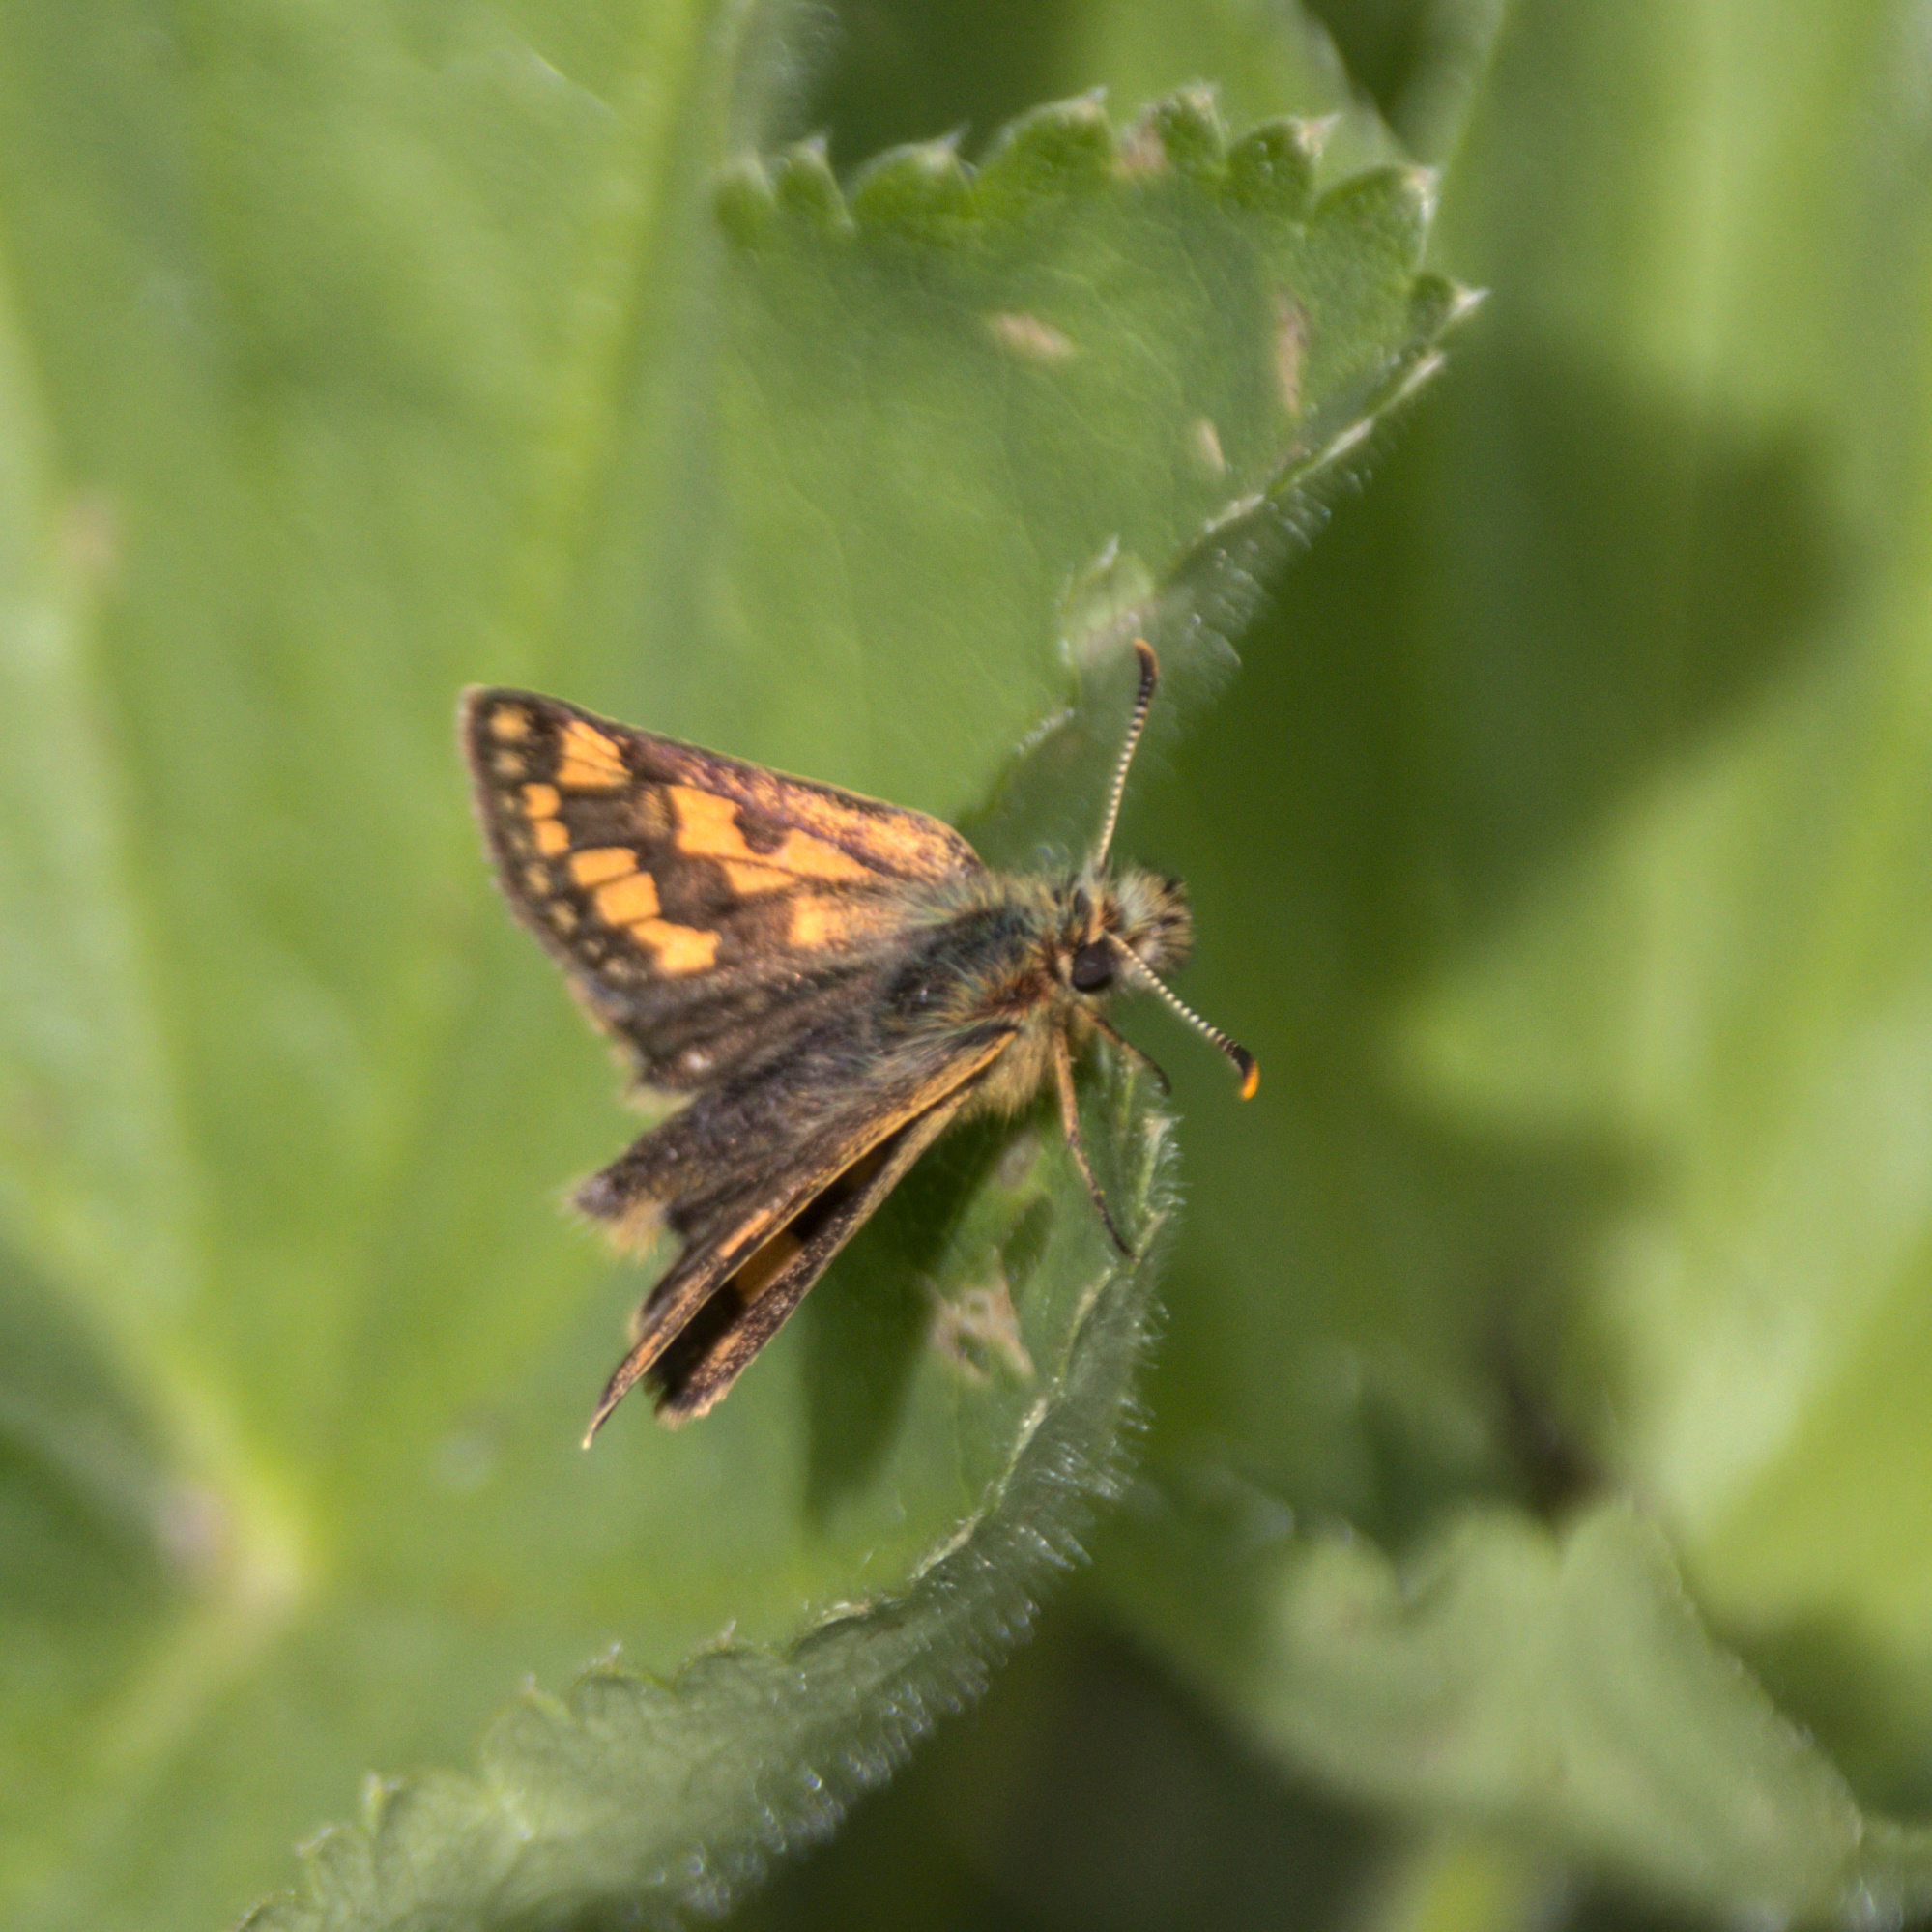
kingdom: Animalia
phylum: Arthropoda
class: Insecta
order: Lepidoptera
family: Hesperiidae
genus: Carterocephalus
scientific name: Carterocephalus palaemon
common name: Chequered skipper
